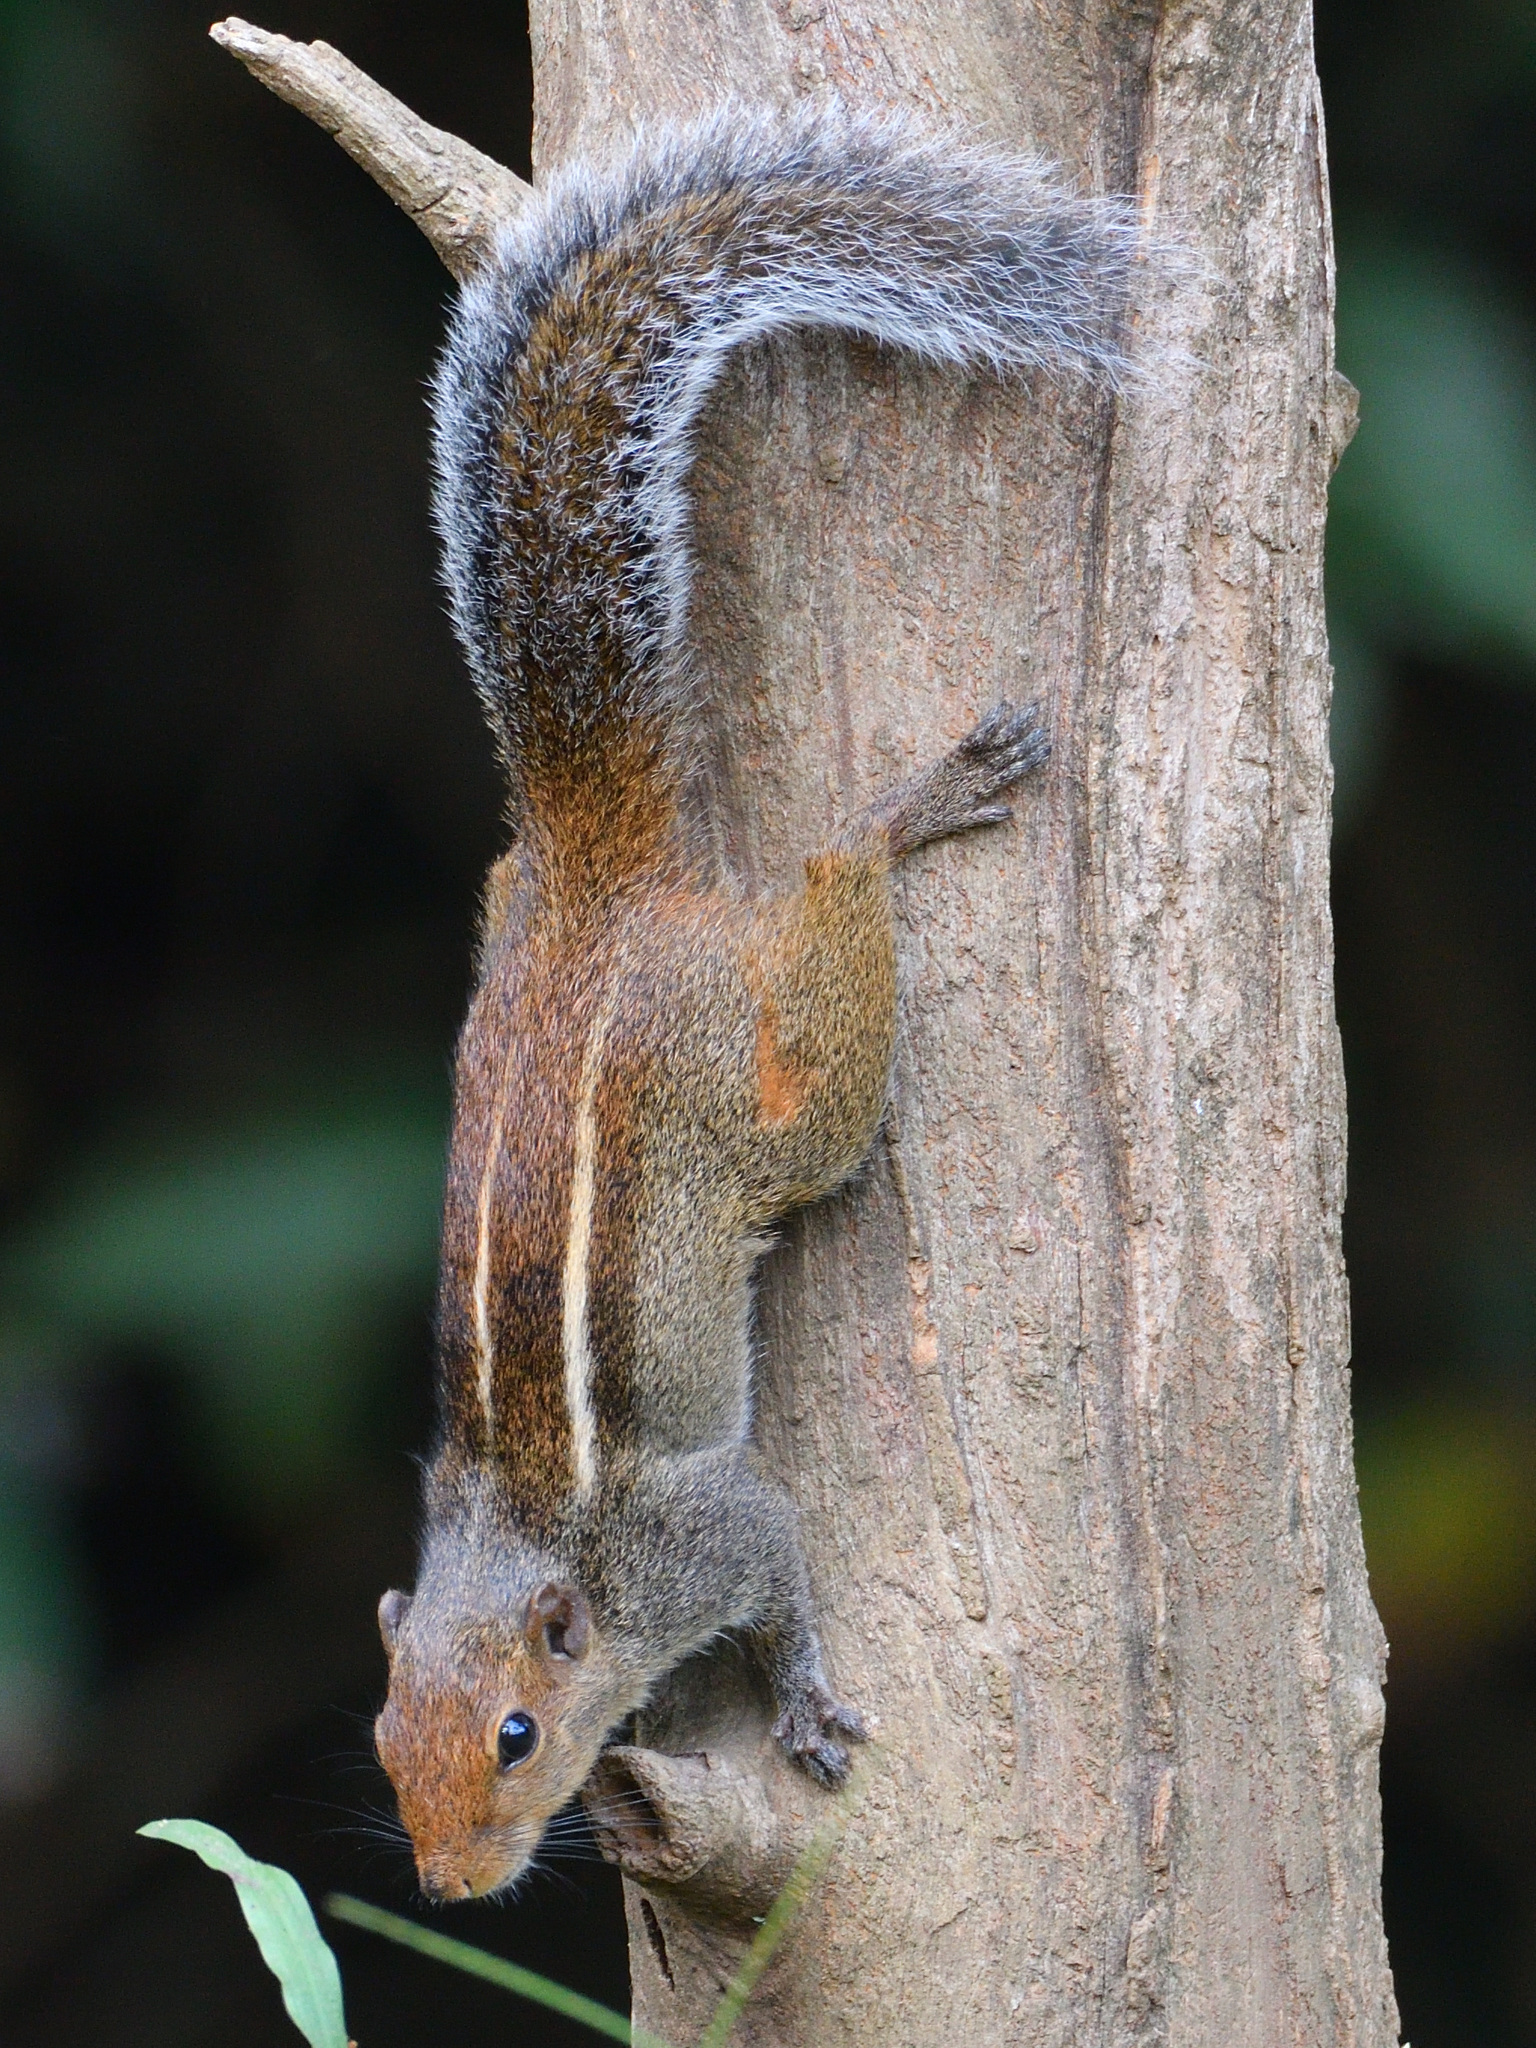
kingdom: Animalia
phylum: Chordata
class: Mammalia
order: Rodentia
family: Sciuridae
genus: Funambulus
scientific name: Funambulus tristriatus
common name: Jungle palm squirrel
